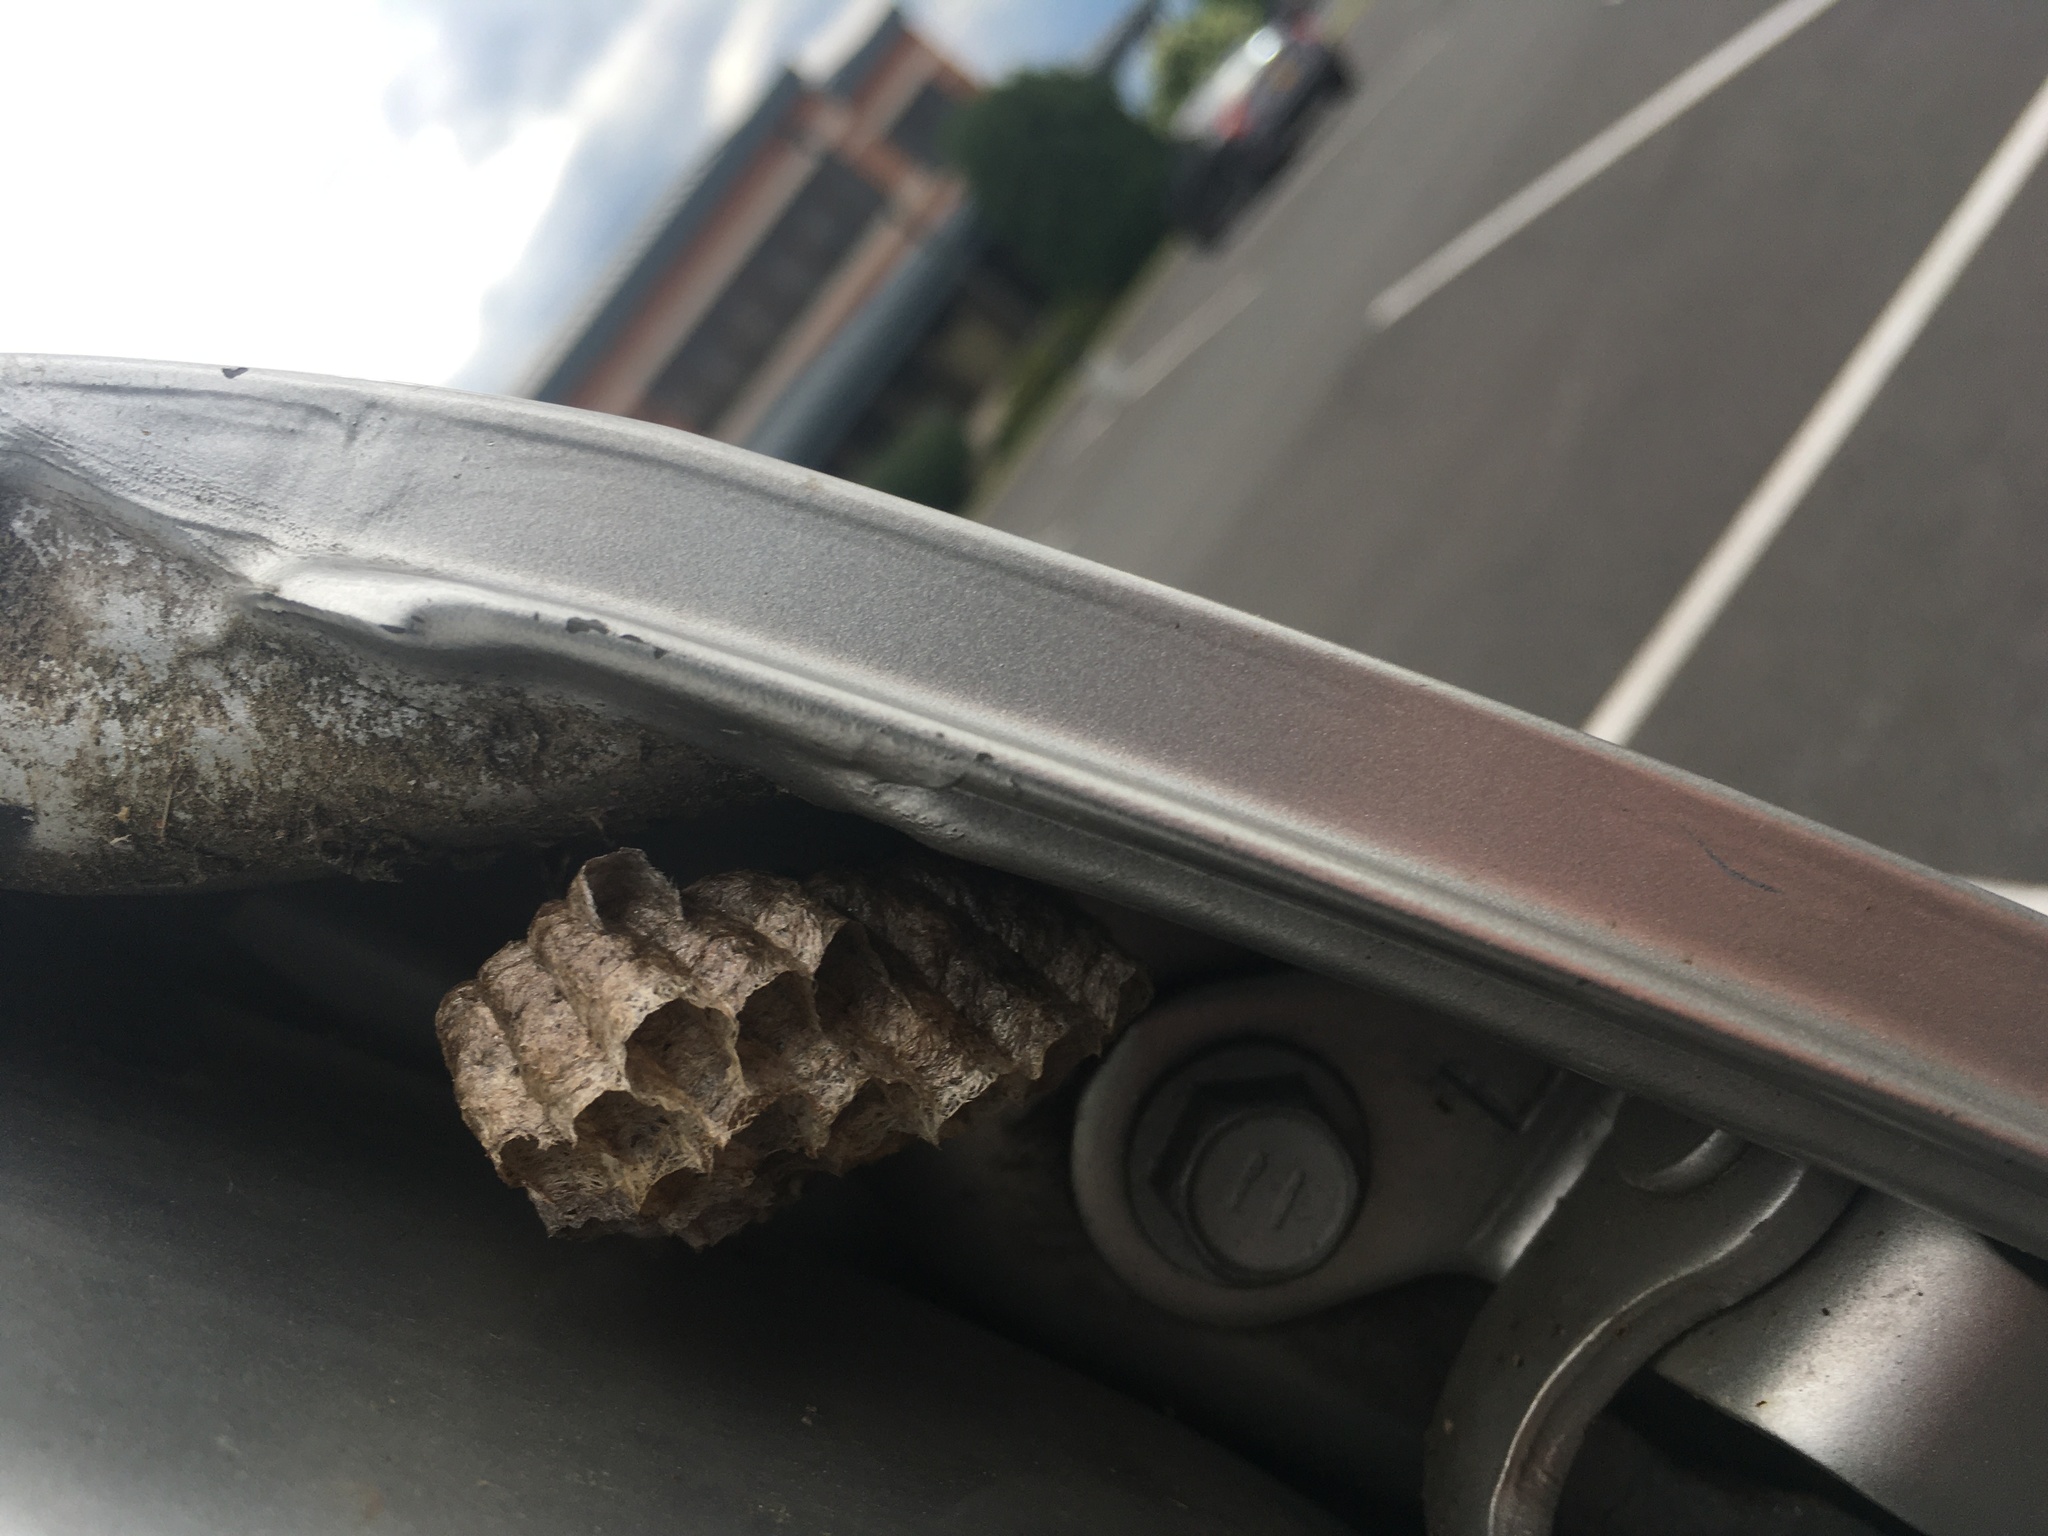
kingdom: Animalia
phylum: Arthropoda
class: Insecta
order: Hymenoptera
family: Eumenidae
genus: Polistes
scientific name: Polistes
